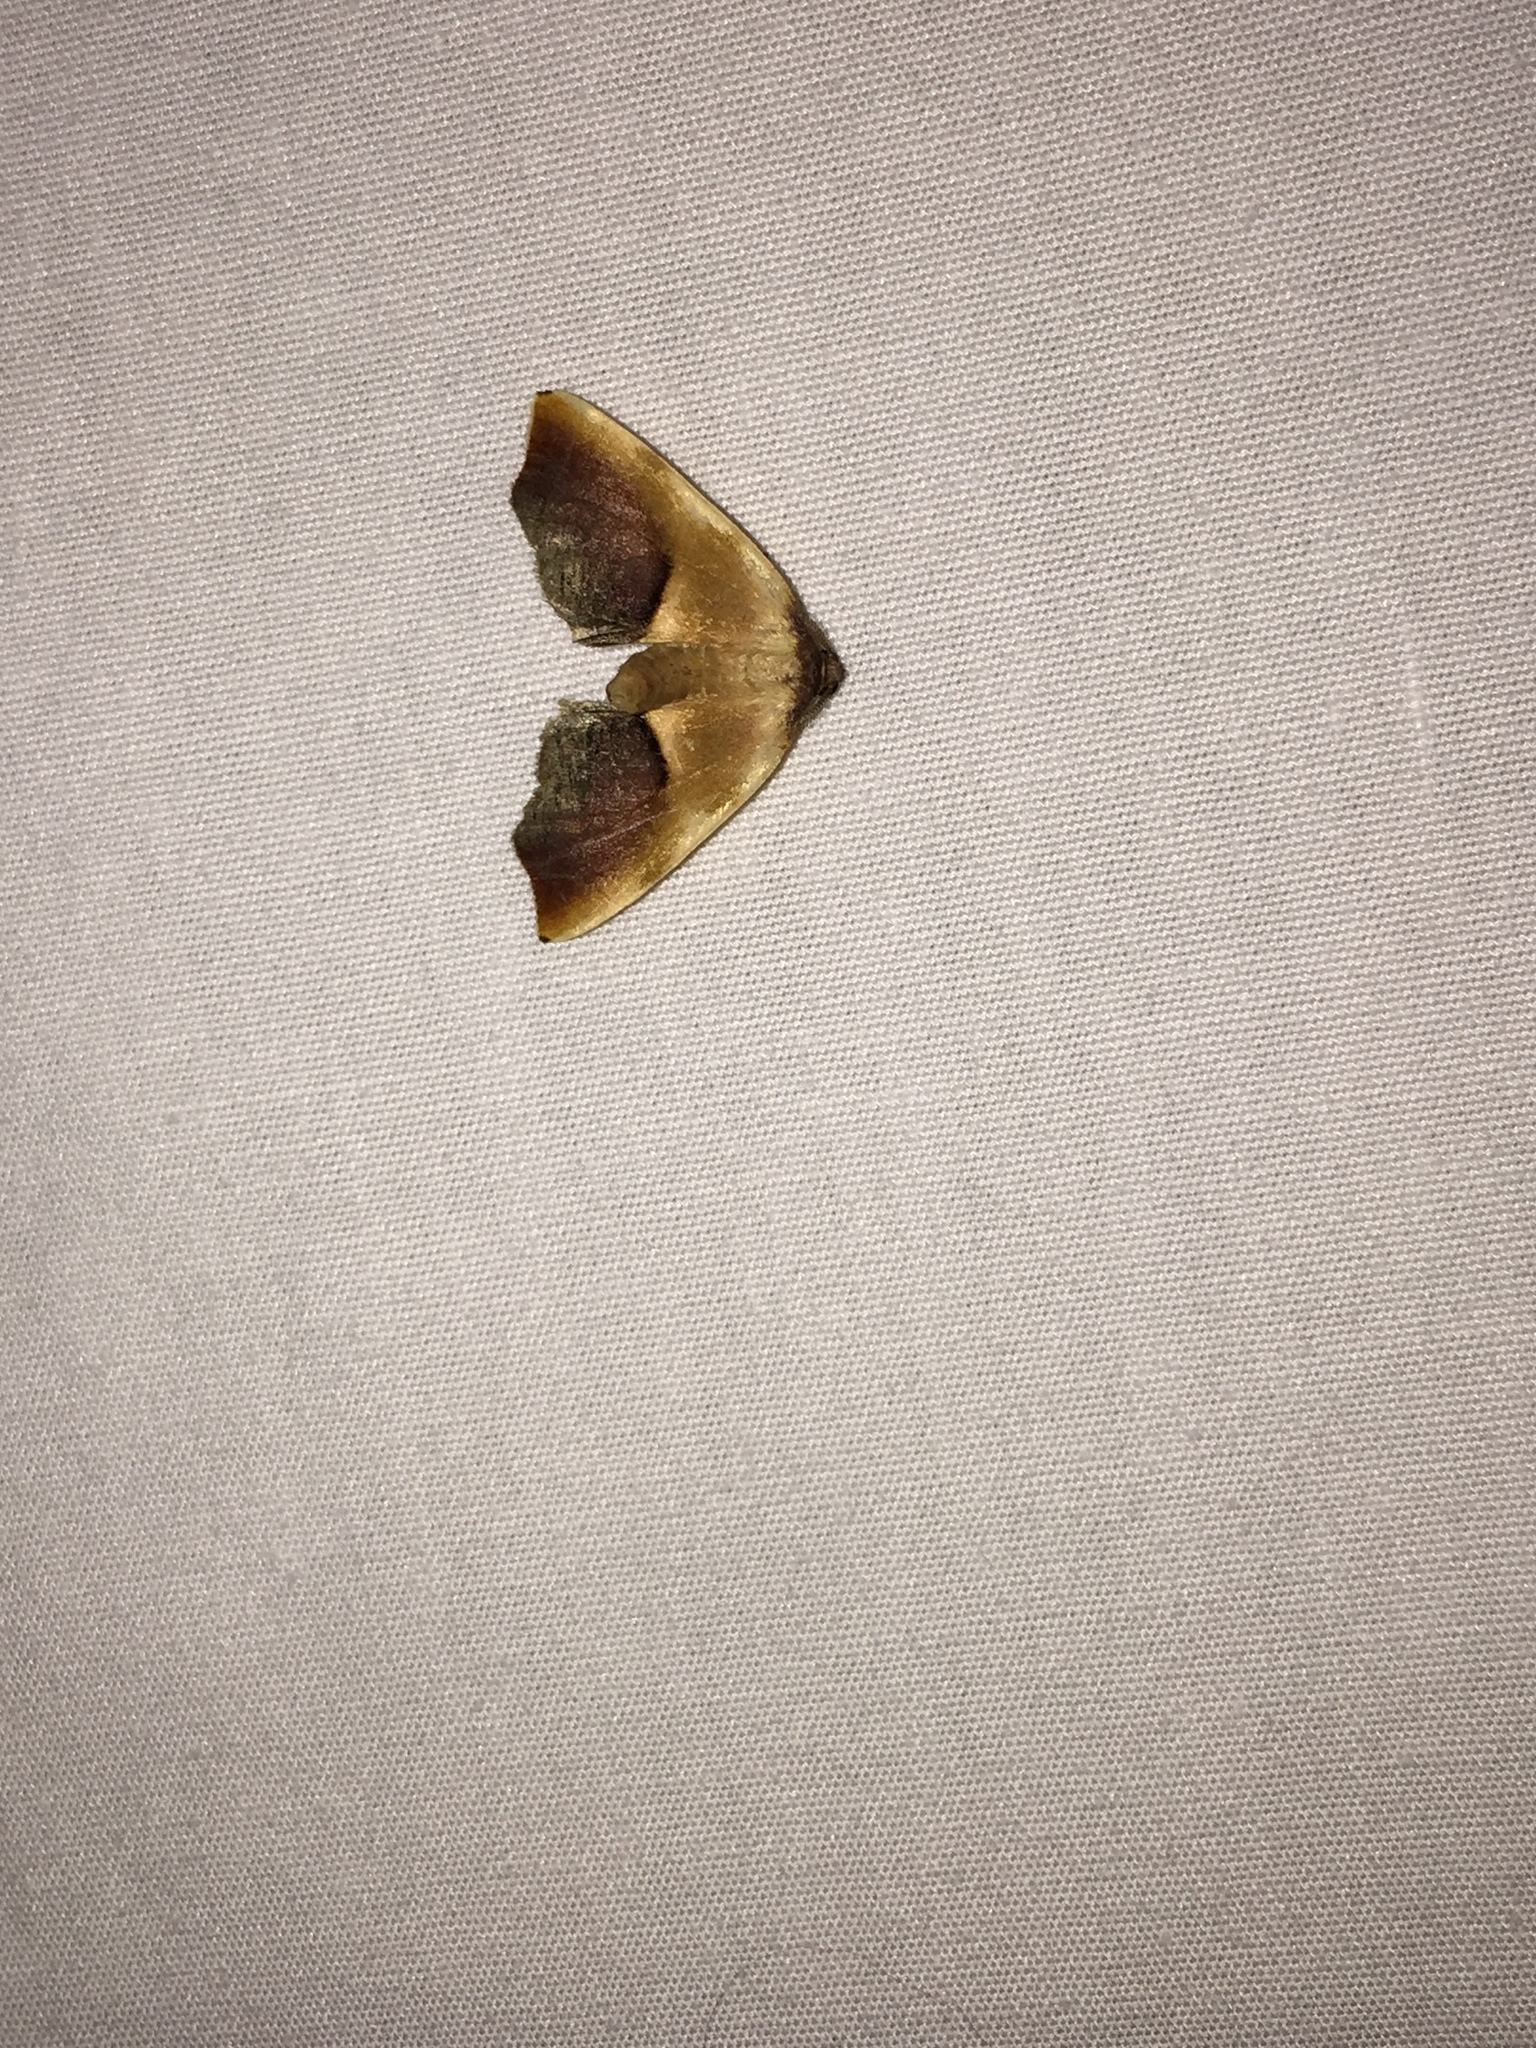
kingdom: Animalia
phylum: Arthropoda
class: Insecta
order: Lepidoptera
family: Geometridae
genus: Plagodis
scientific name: Plagodis kuetzingi
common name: Purple plagodis
